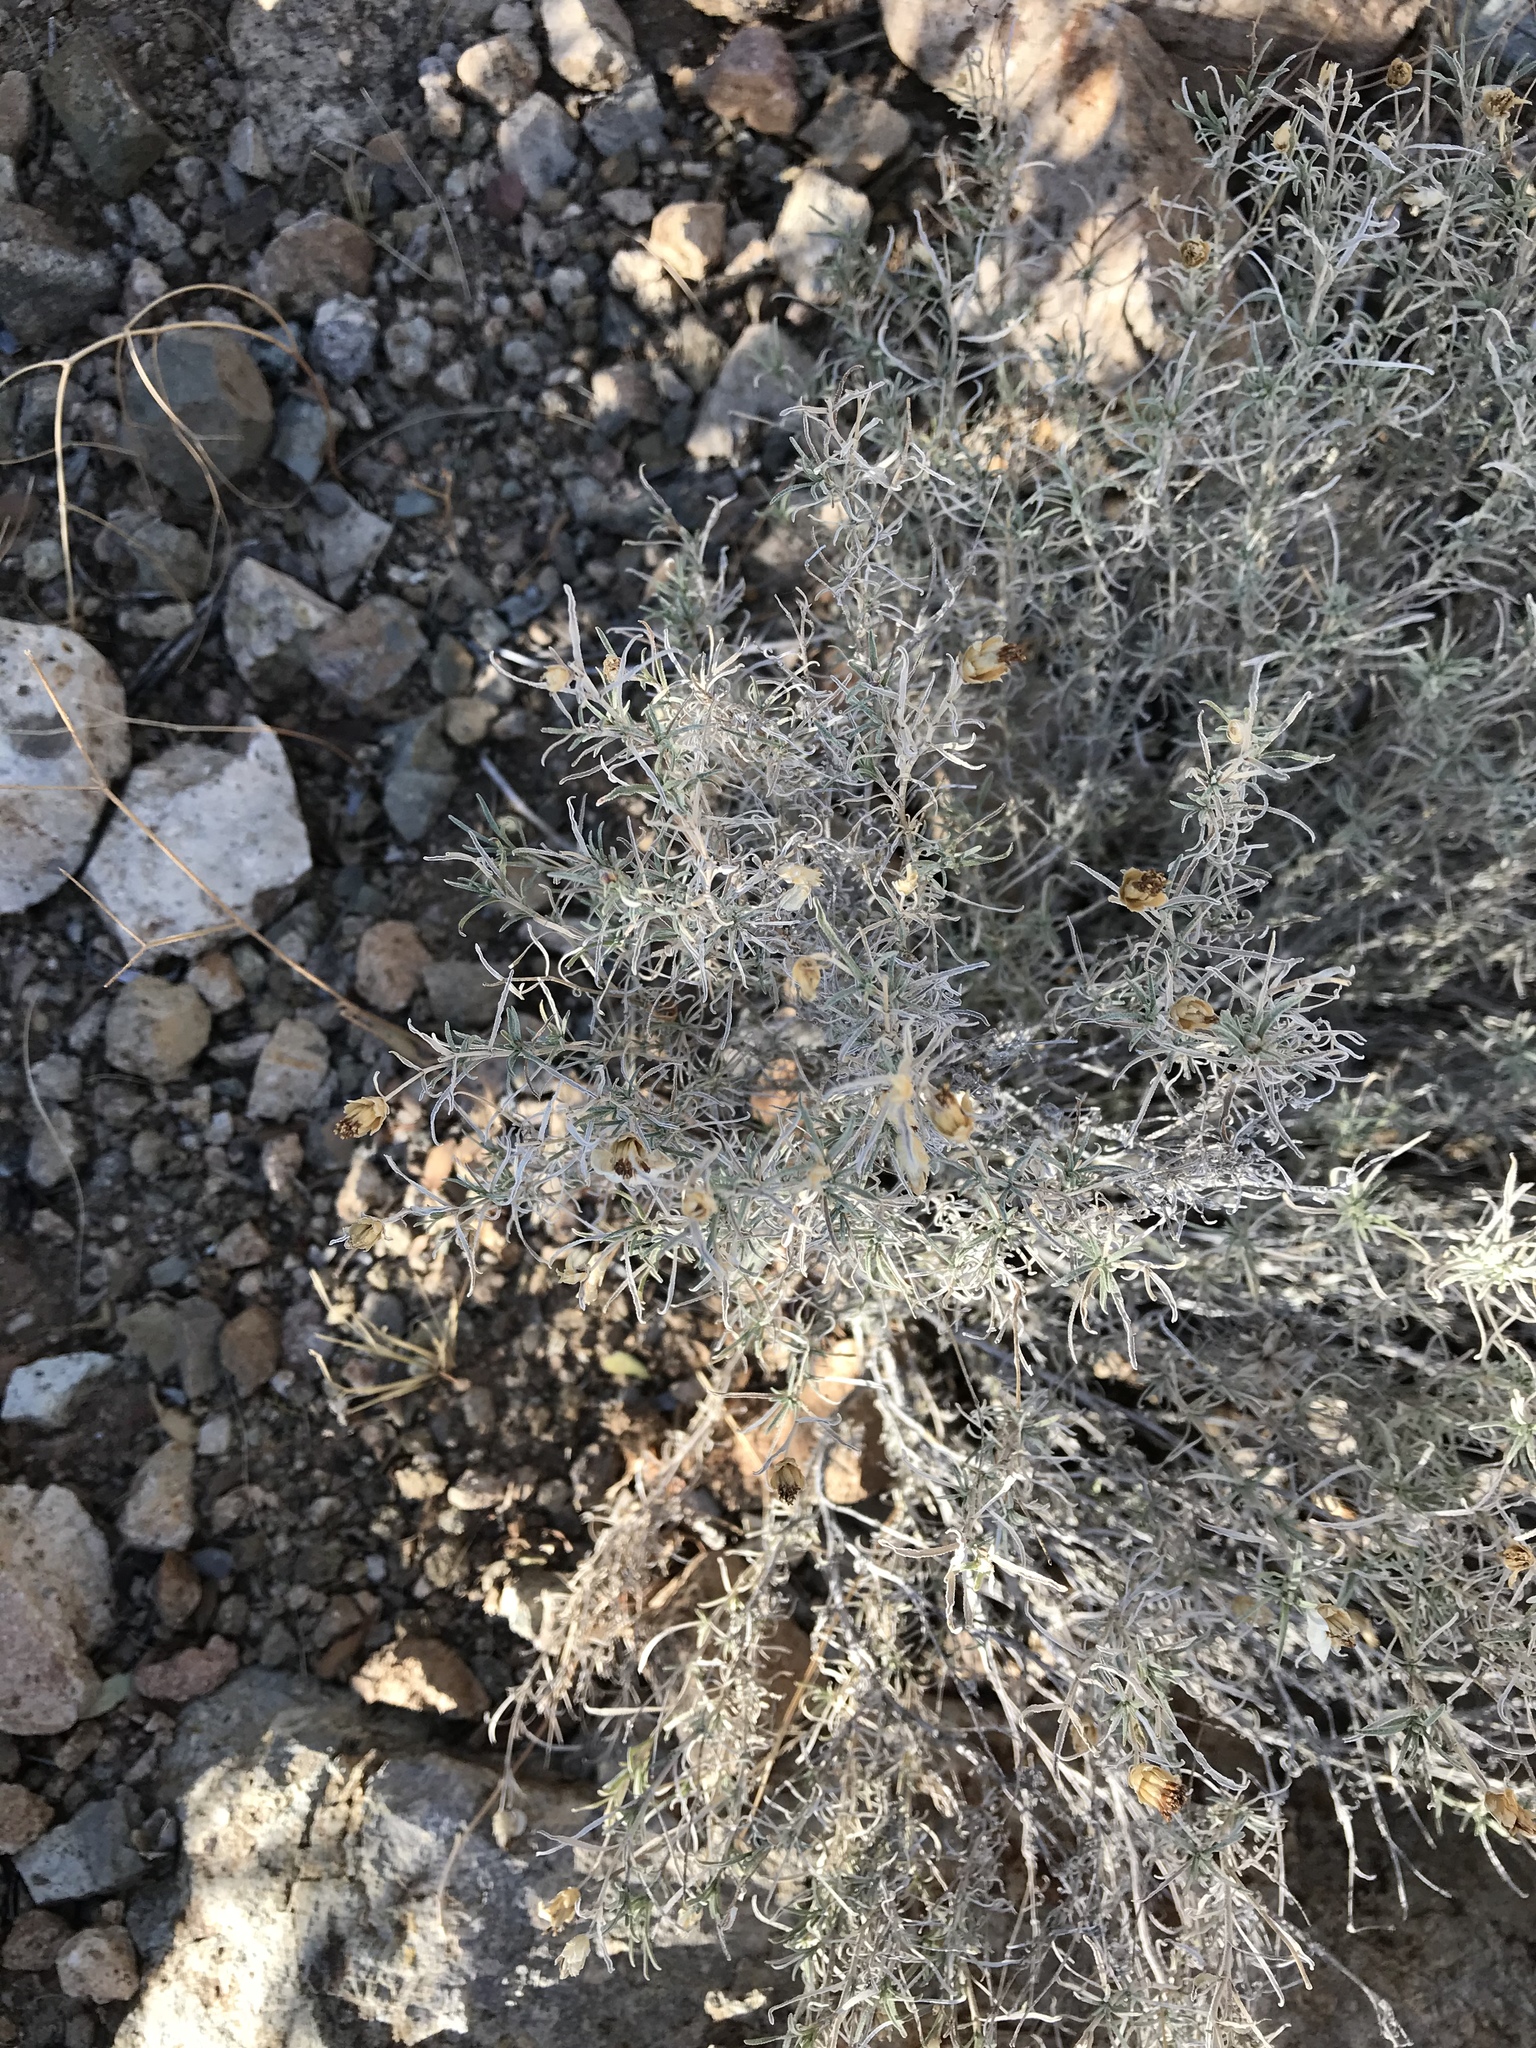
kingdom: Plantae
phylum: Tracheophyta
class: Magnoliopsida
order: Asterales
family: Asteraceae
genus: Zinnia
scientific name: Zinnia acerosa
